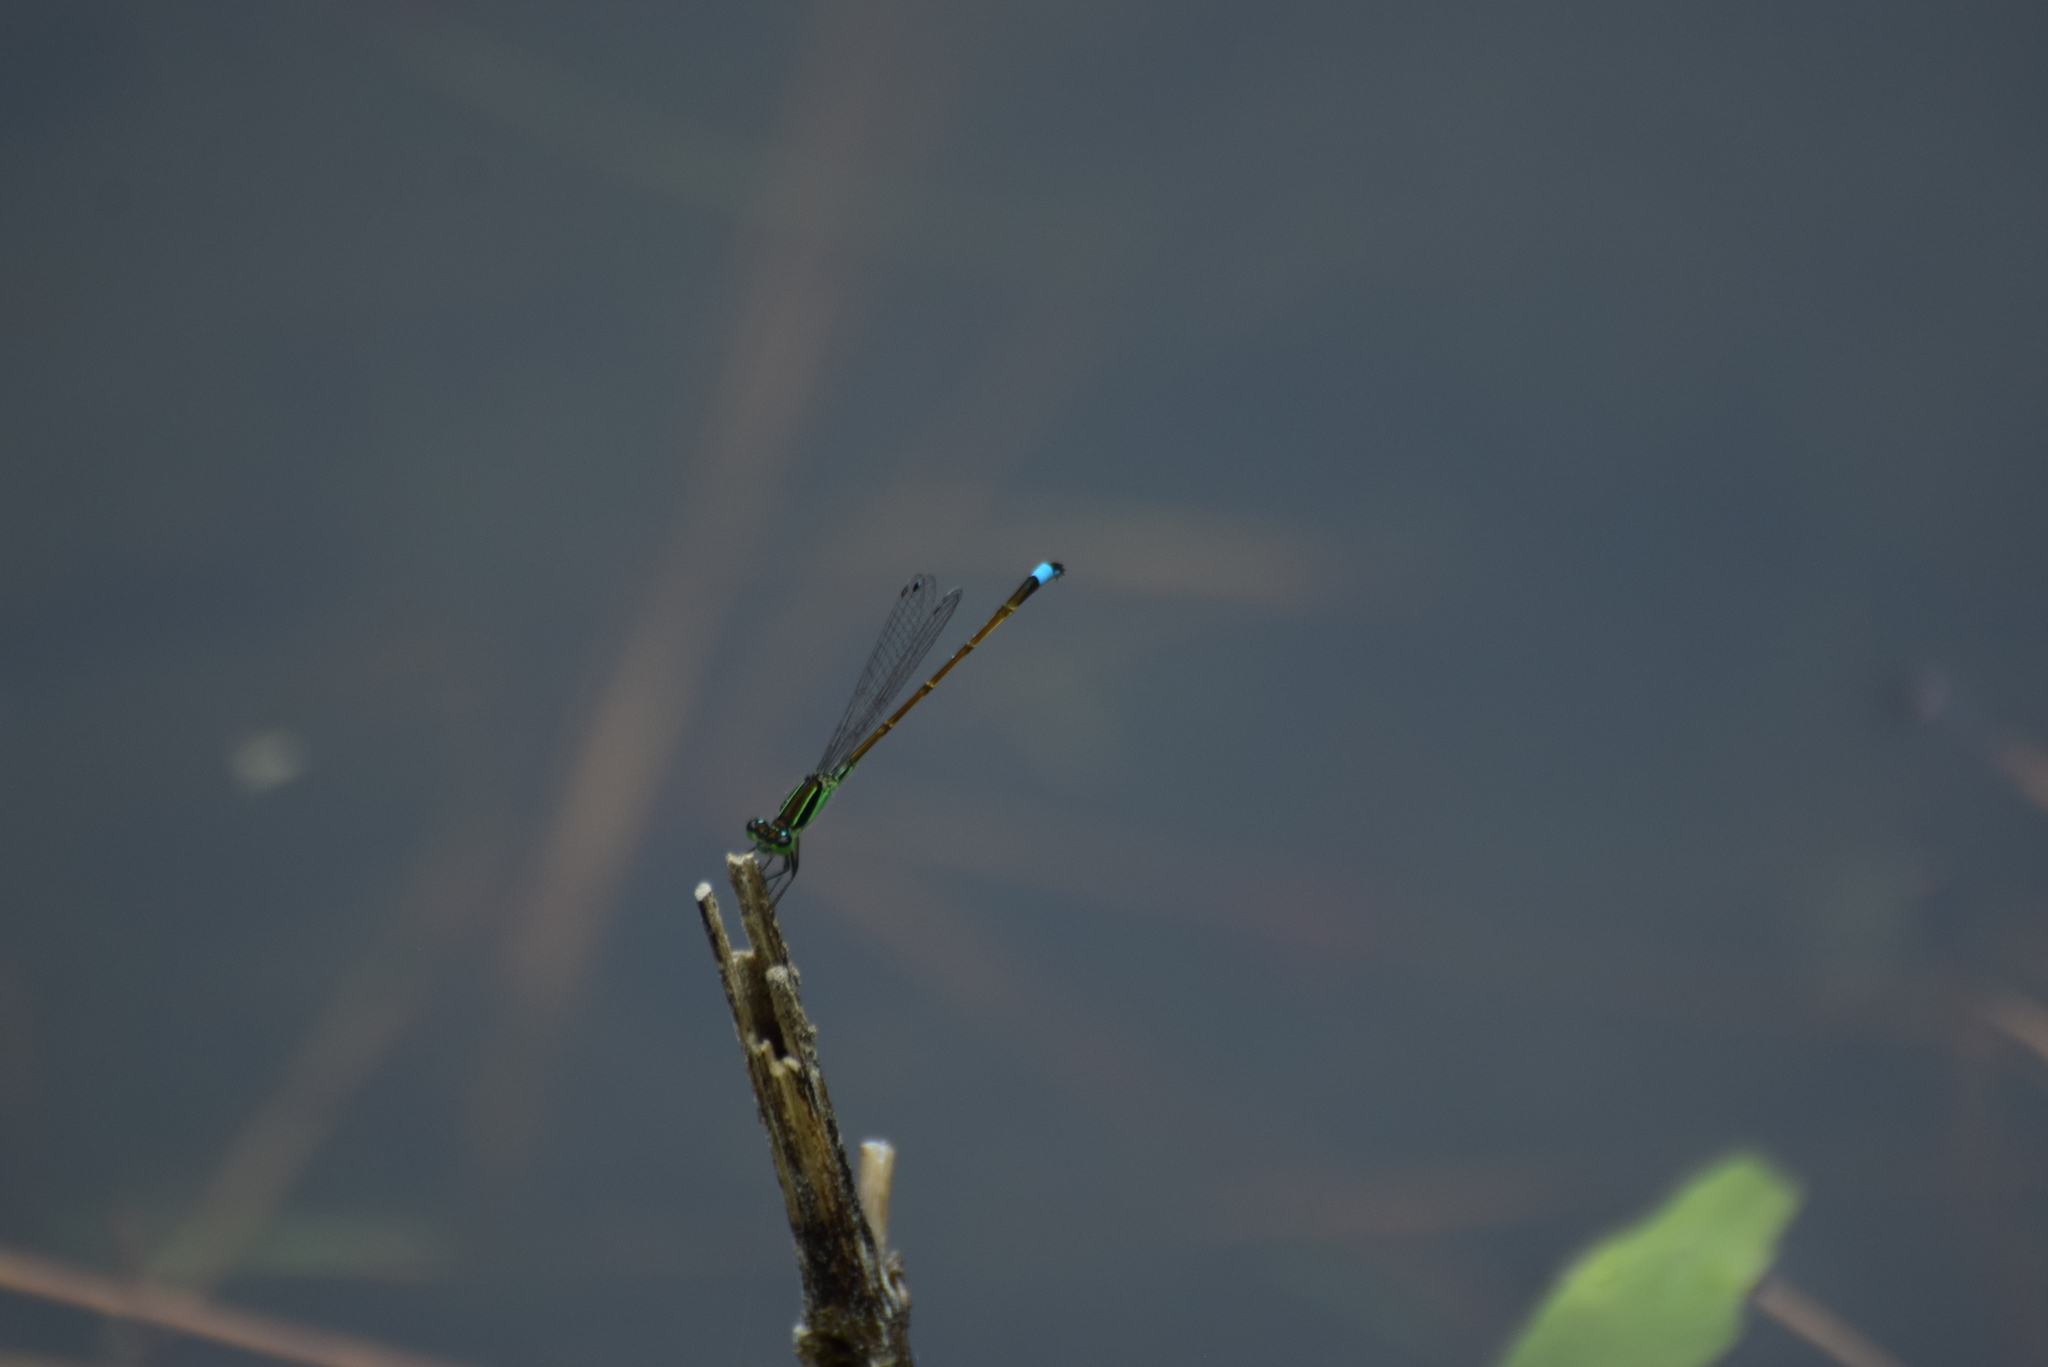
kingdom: Animalia
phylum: Arthropoda
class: Insecta
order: Odonata
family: Coenagrionidae
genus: Ischnura
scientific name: Ischnura ramburii
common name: Rambur's forktail
